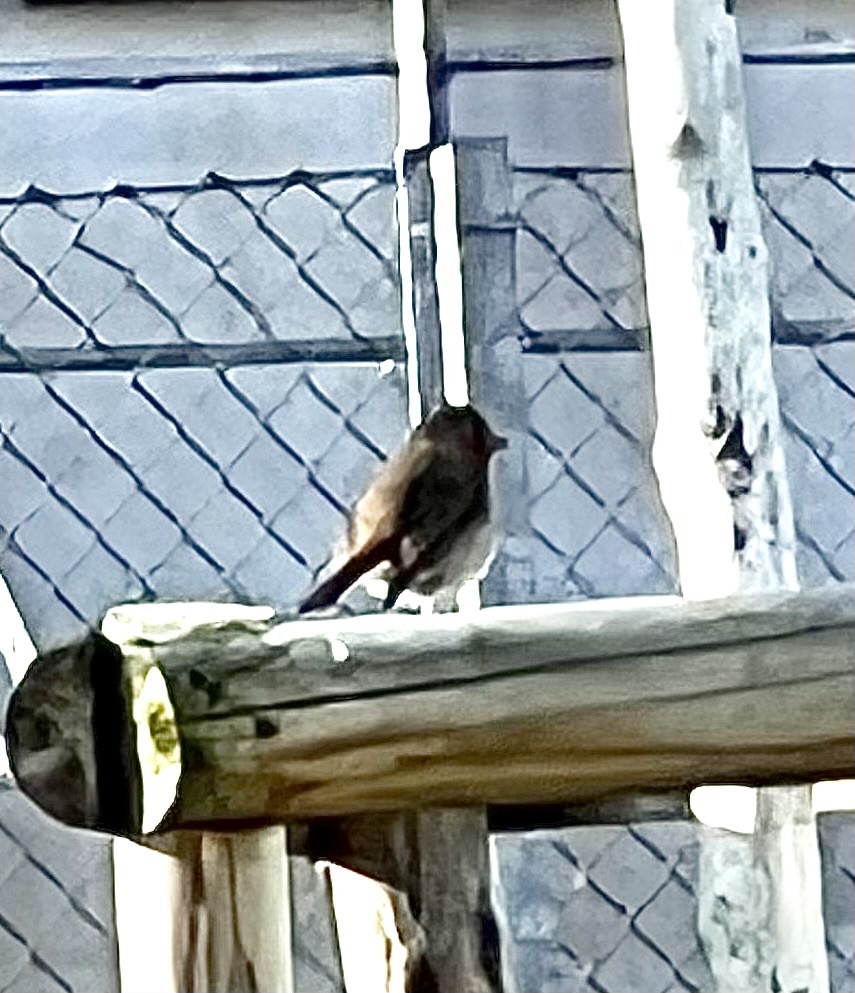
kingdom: Animalia
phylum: Chordata
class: Aves
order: Passeriformes
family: Muscicapidae
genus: Erithacus
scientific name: Erithacus rubecula
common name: European robin
